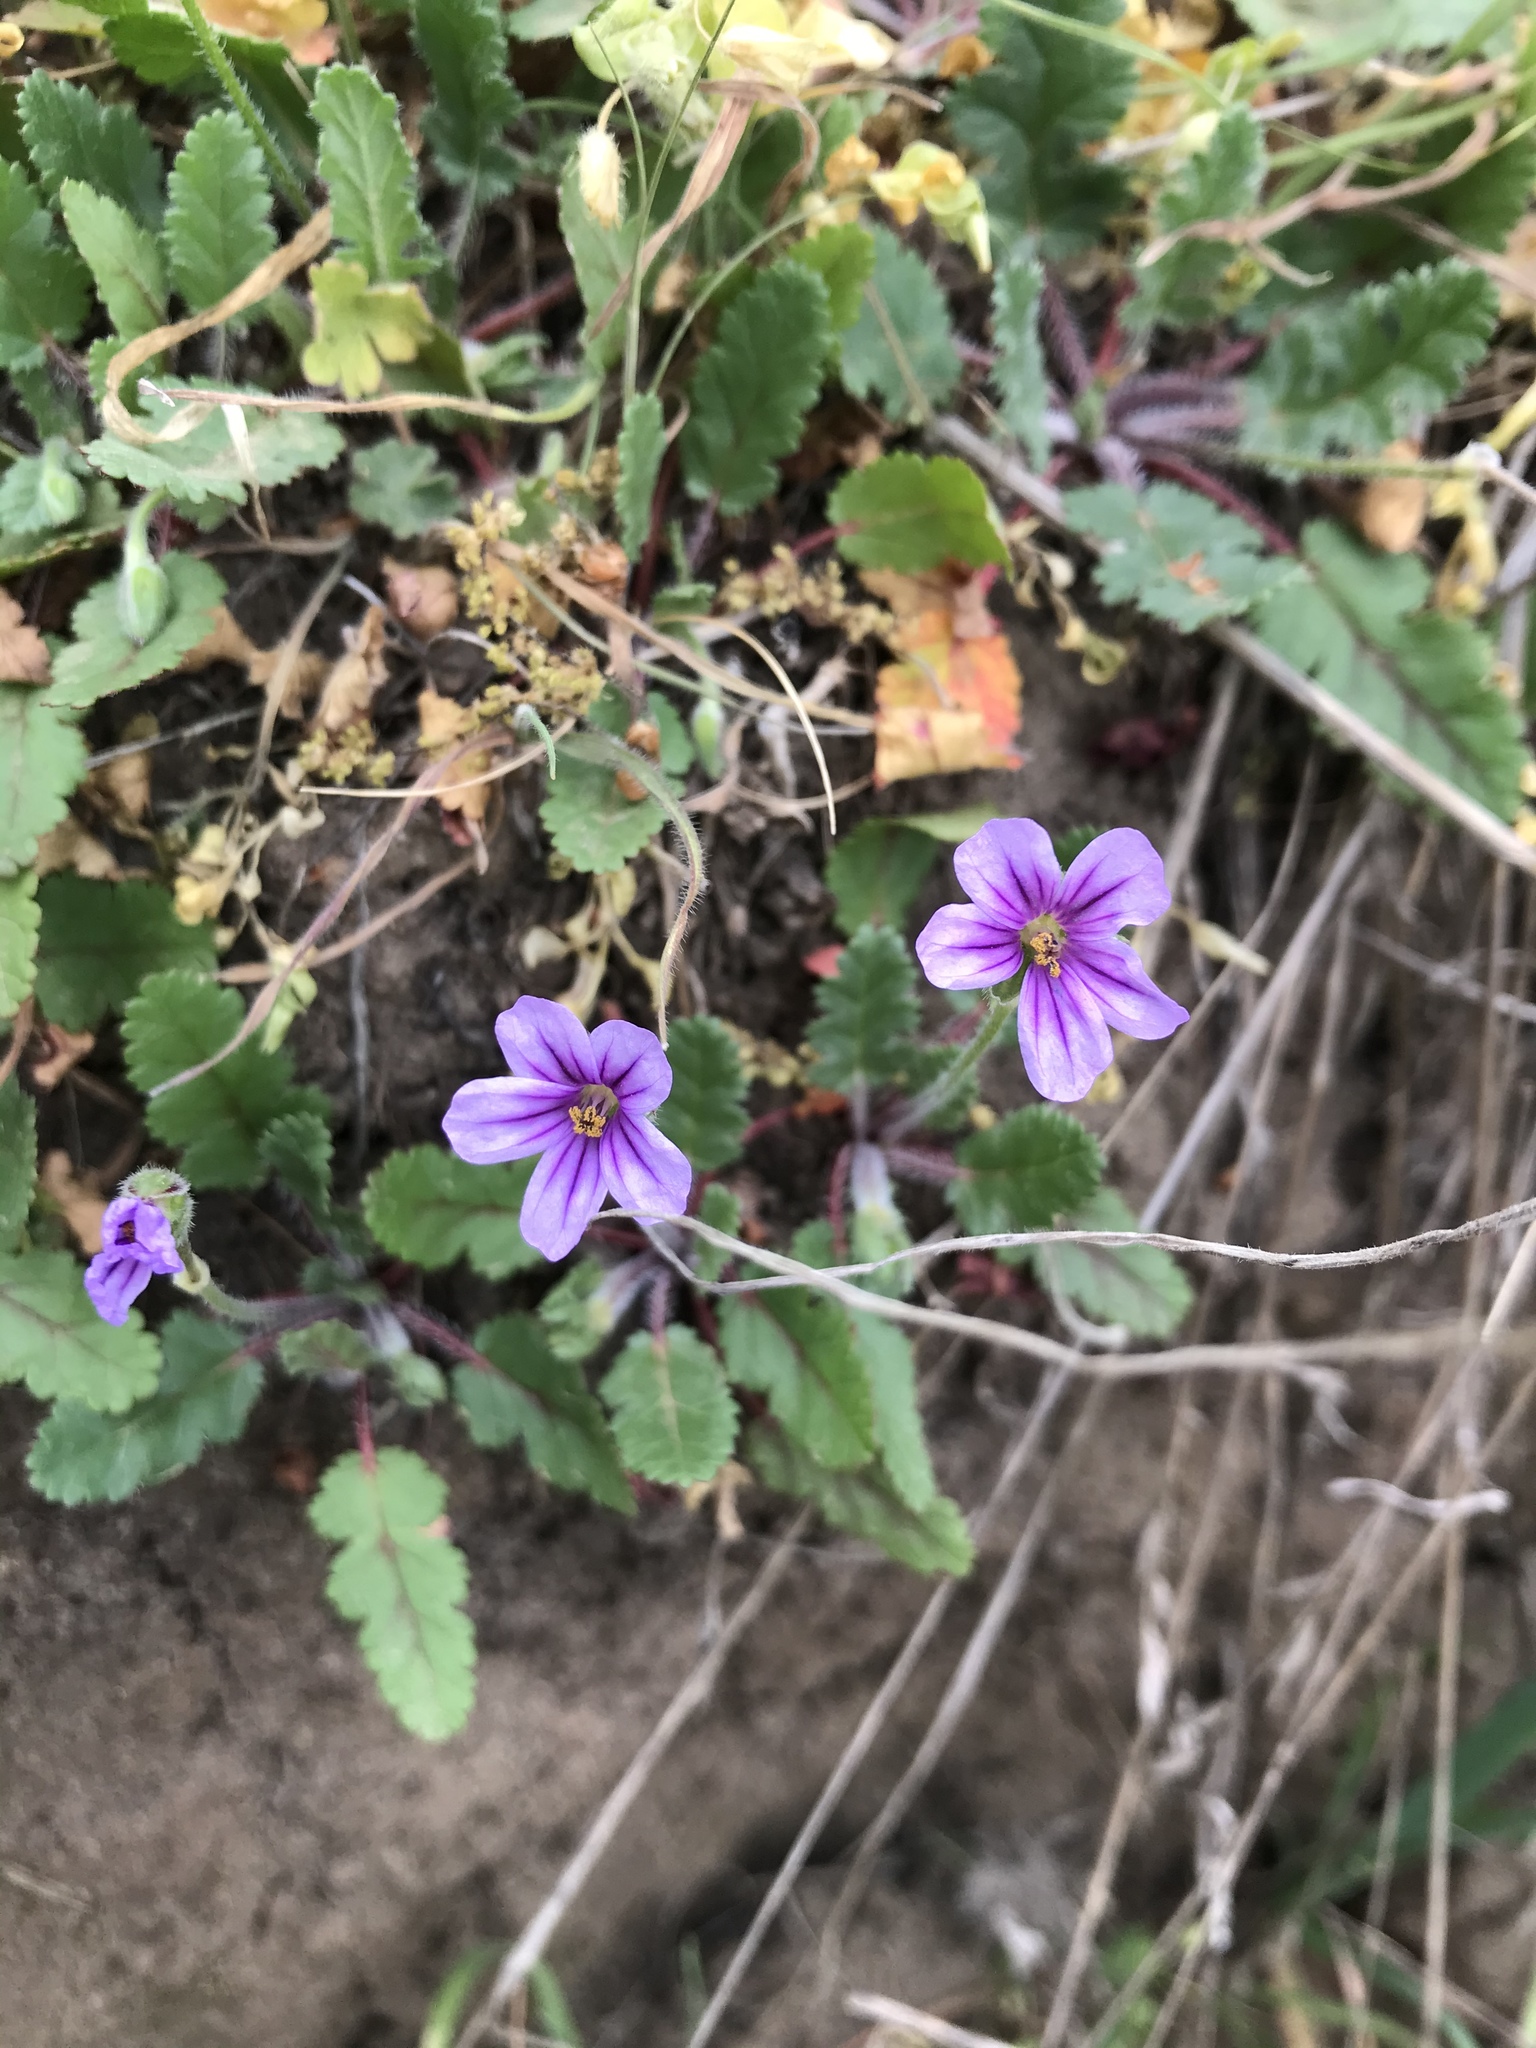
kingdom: Plantae
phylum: Tracheophyta
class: Magnoliopsida
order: Geraniales
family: Geraniaceae
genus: Erodium
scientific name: Erodium botrys
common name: Mediterranean stork's-bill
